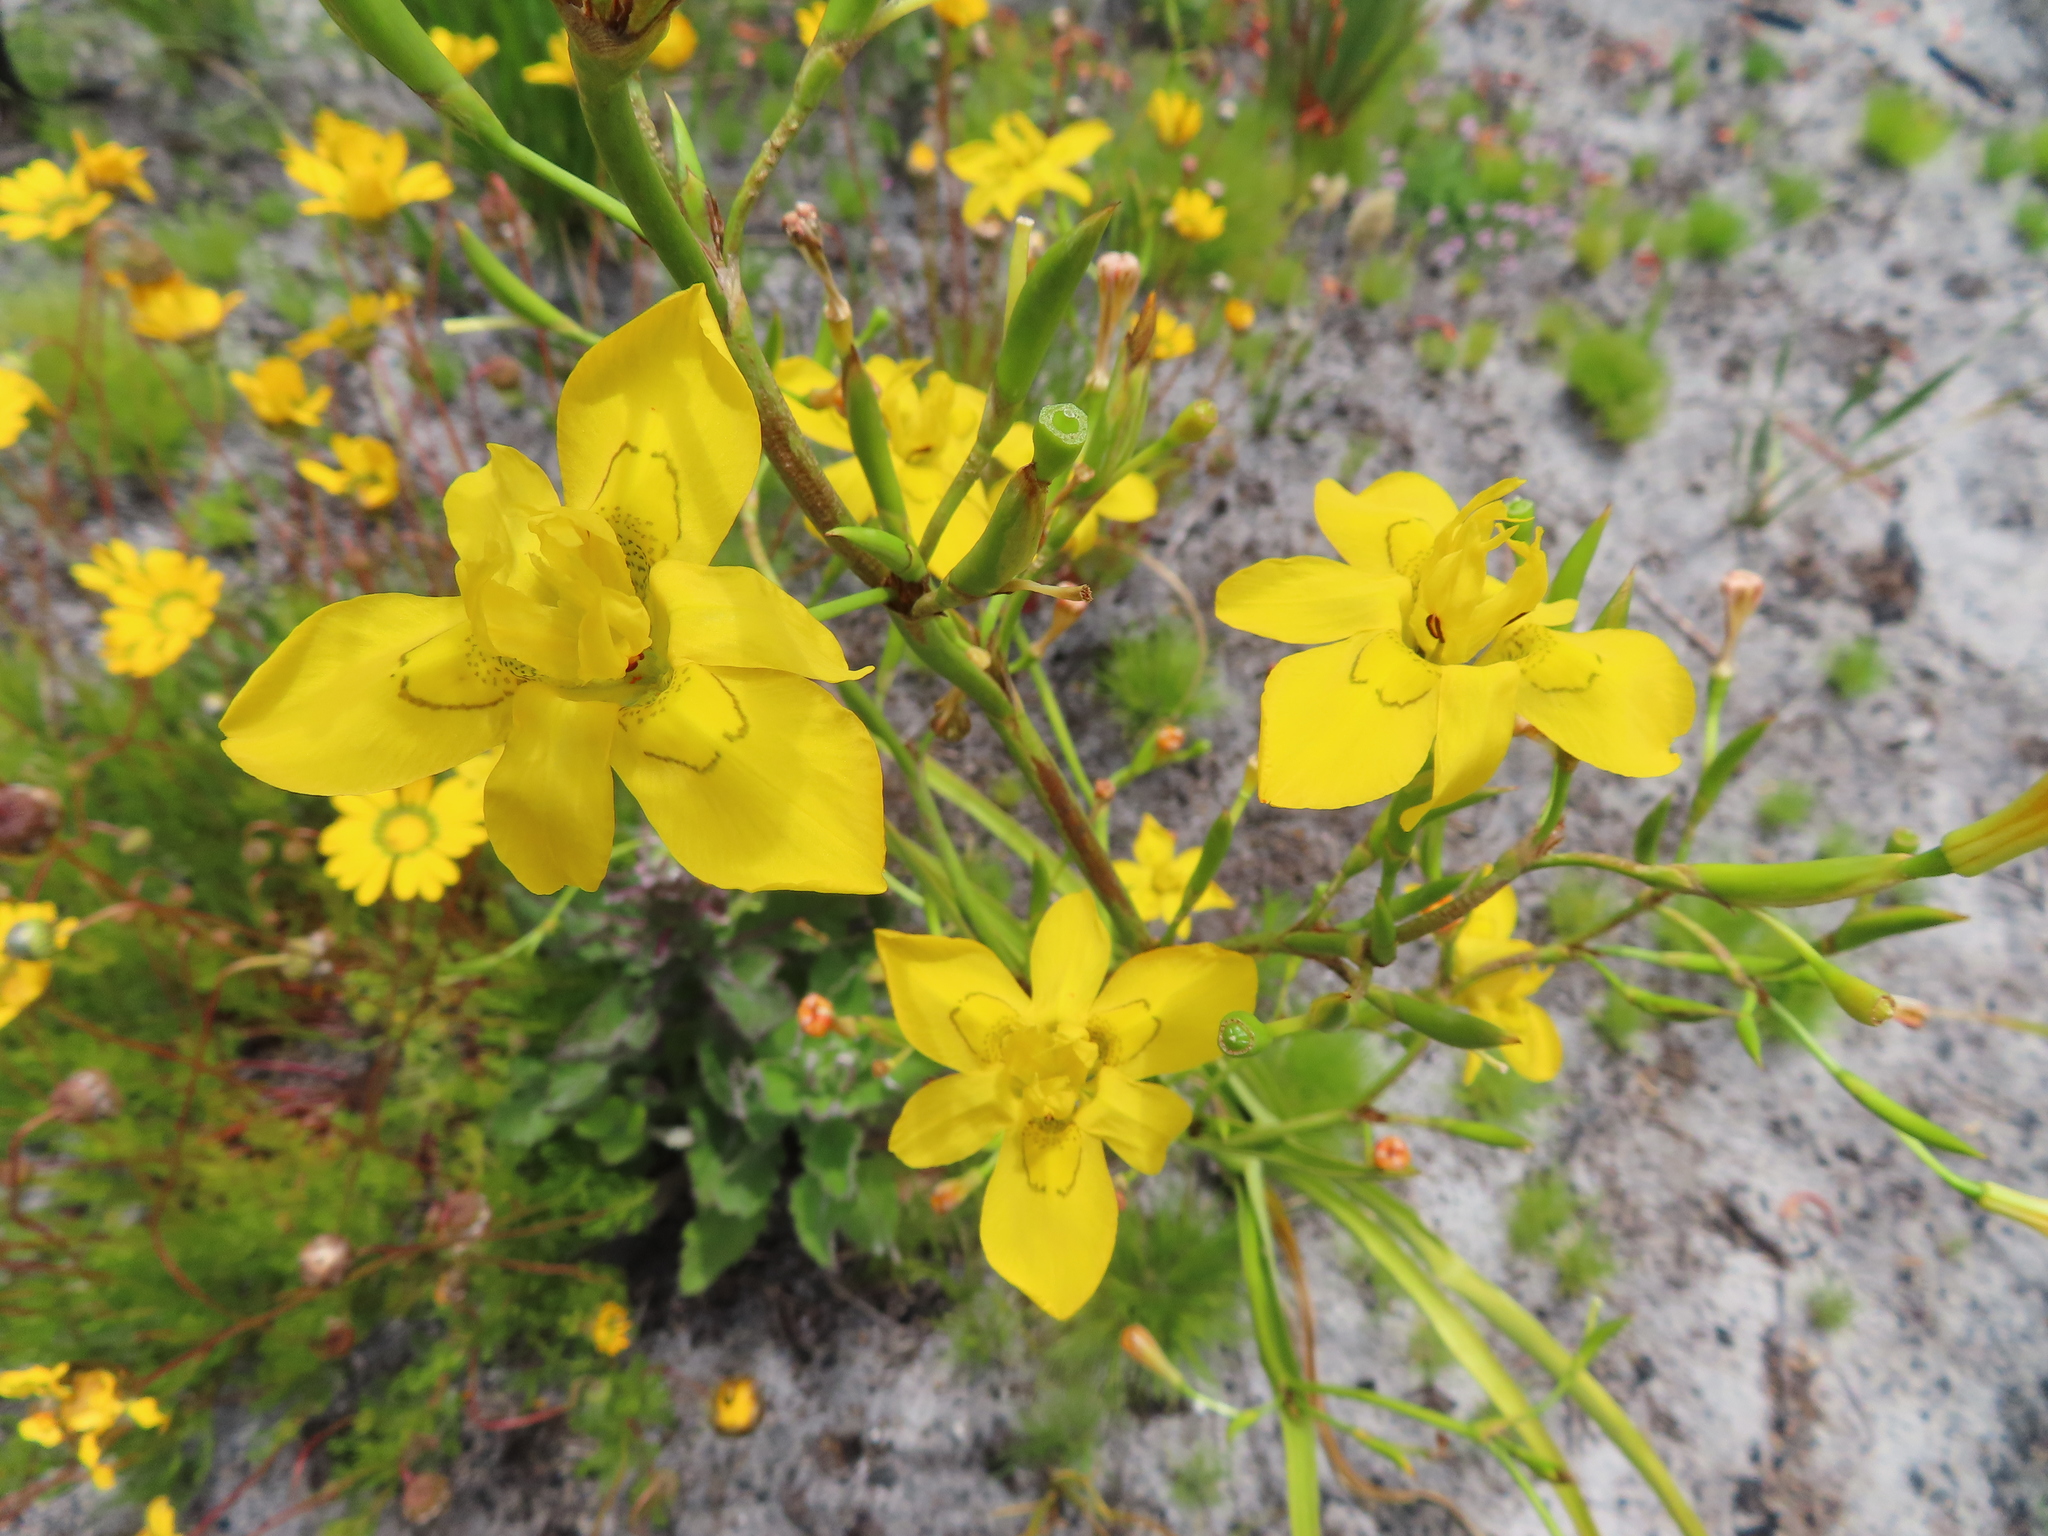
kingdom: Plantae
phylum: Tracheophyta
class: Liliopsida
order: Asparagales
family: Iridaceae
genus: Moraea
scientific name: Moraea ramosissima
